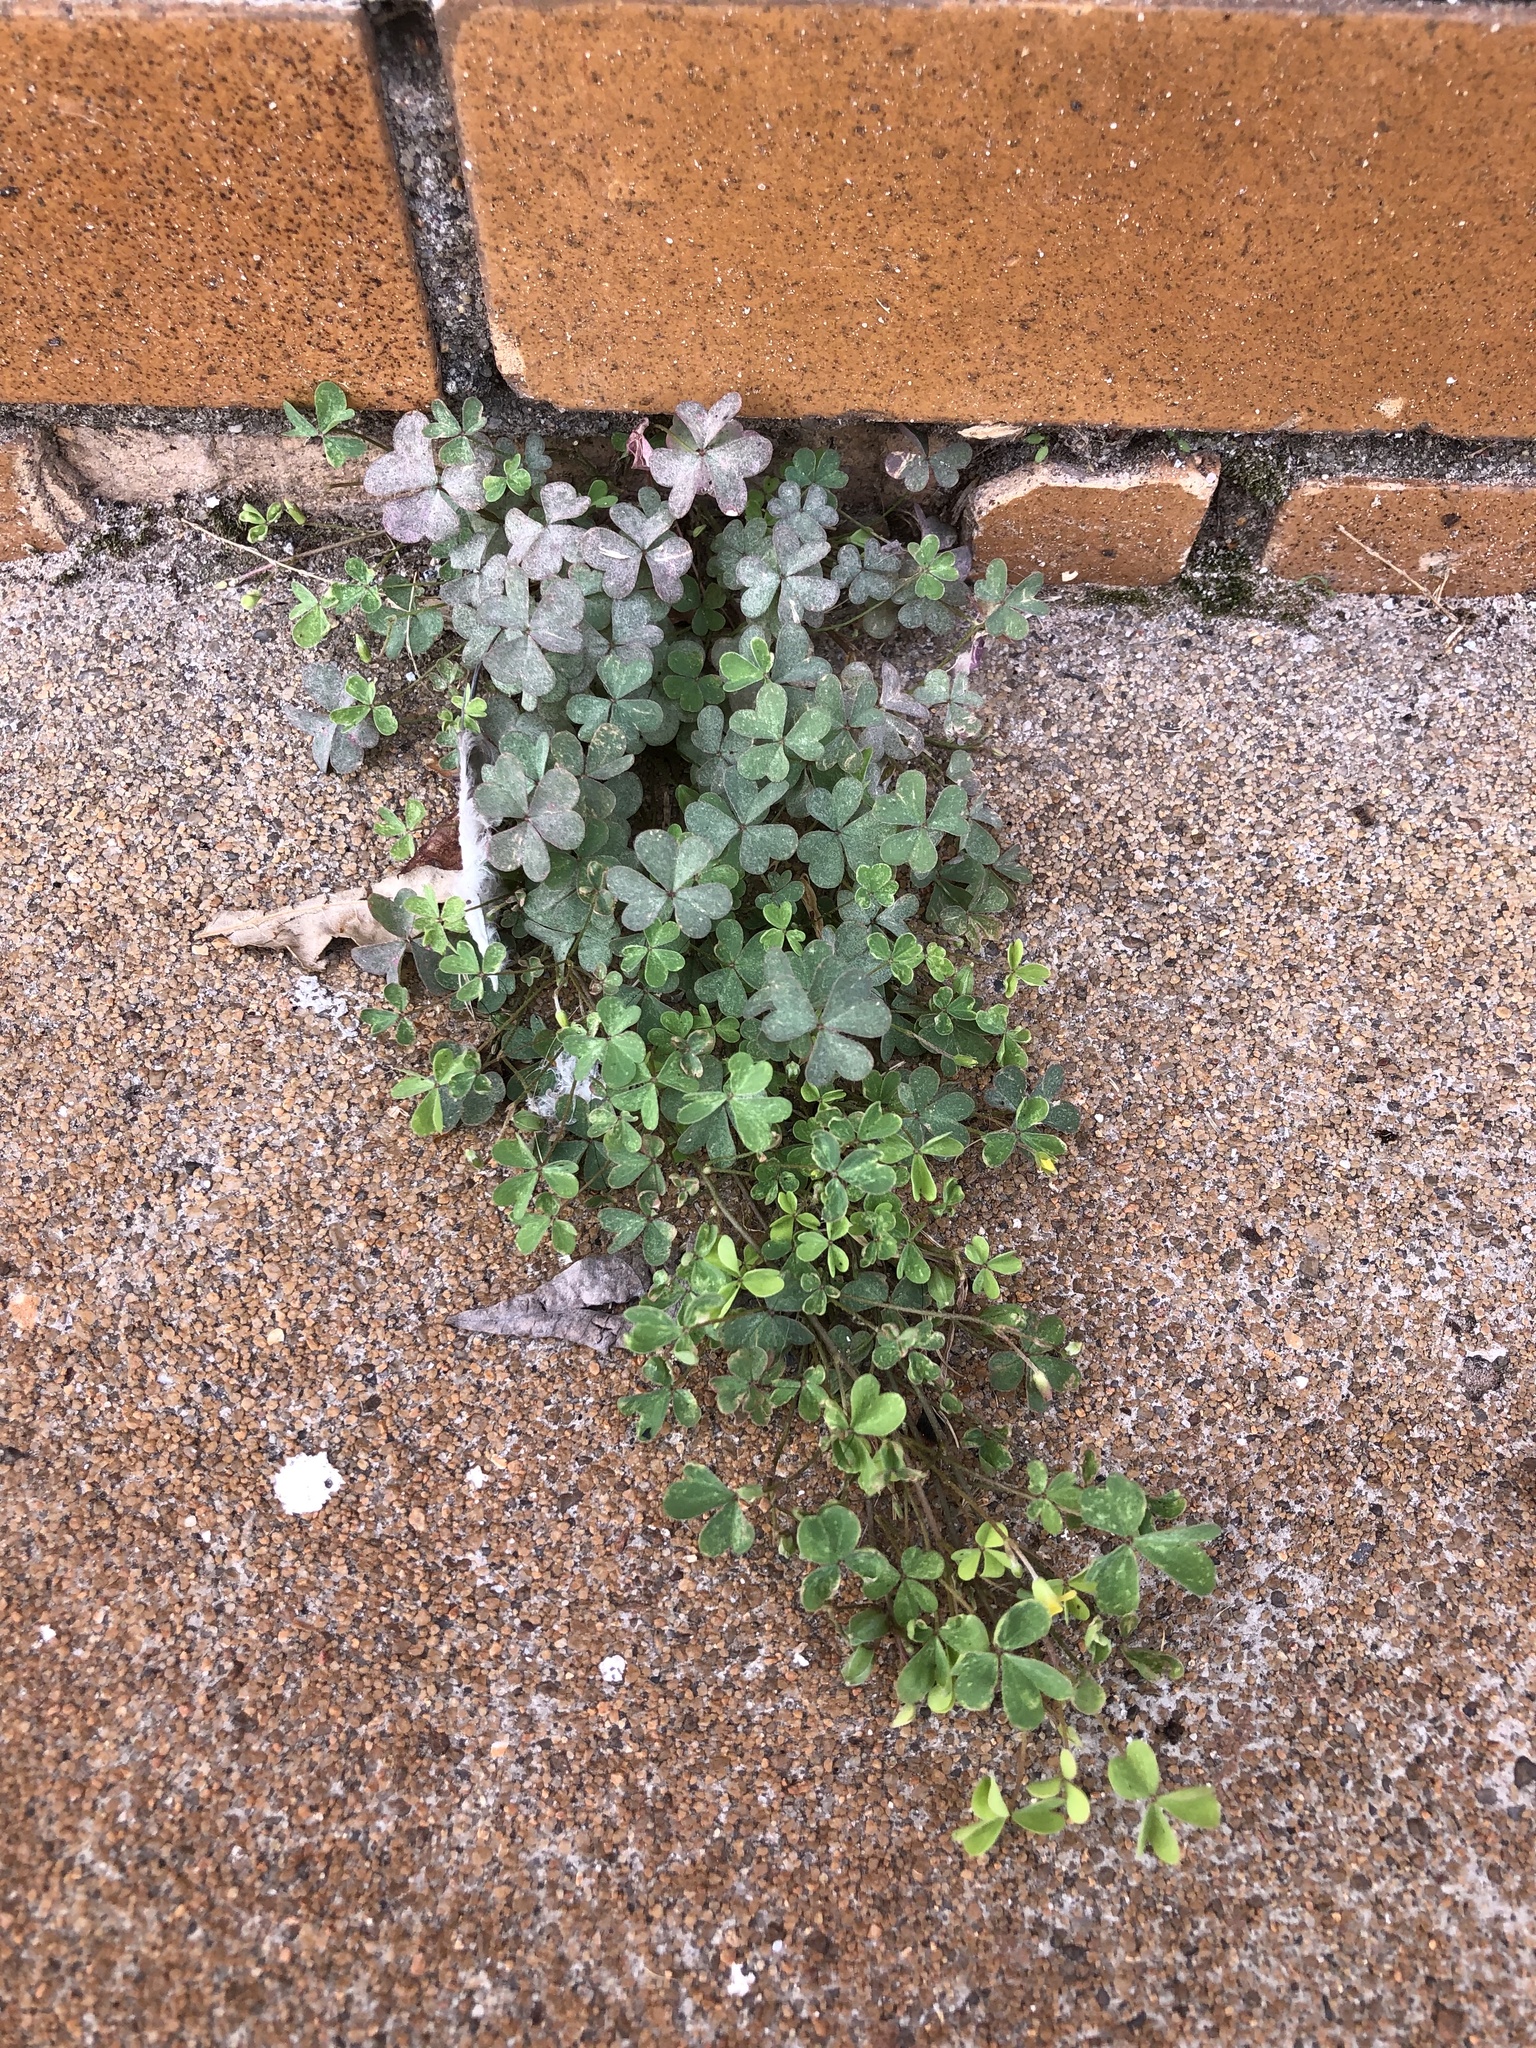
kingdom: Plantae
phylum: Tracheophyta
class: Magnoliopsida
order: Oxalidales
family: Oxalidaceae
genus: Oxalis
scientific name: Oxalis corniculata
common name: Procumbent yellow-sorrel
